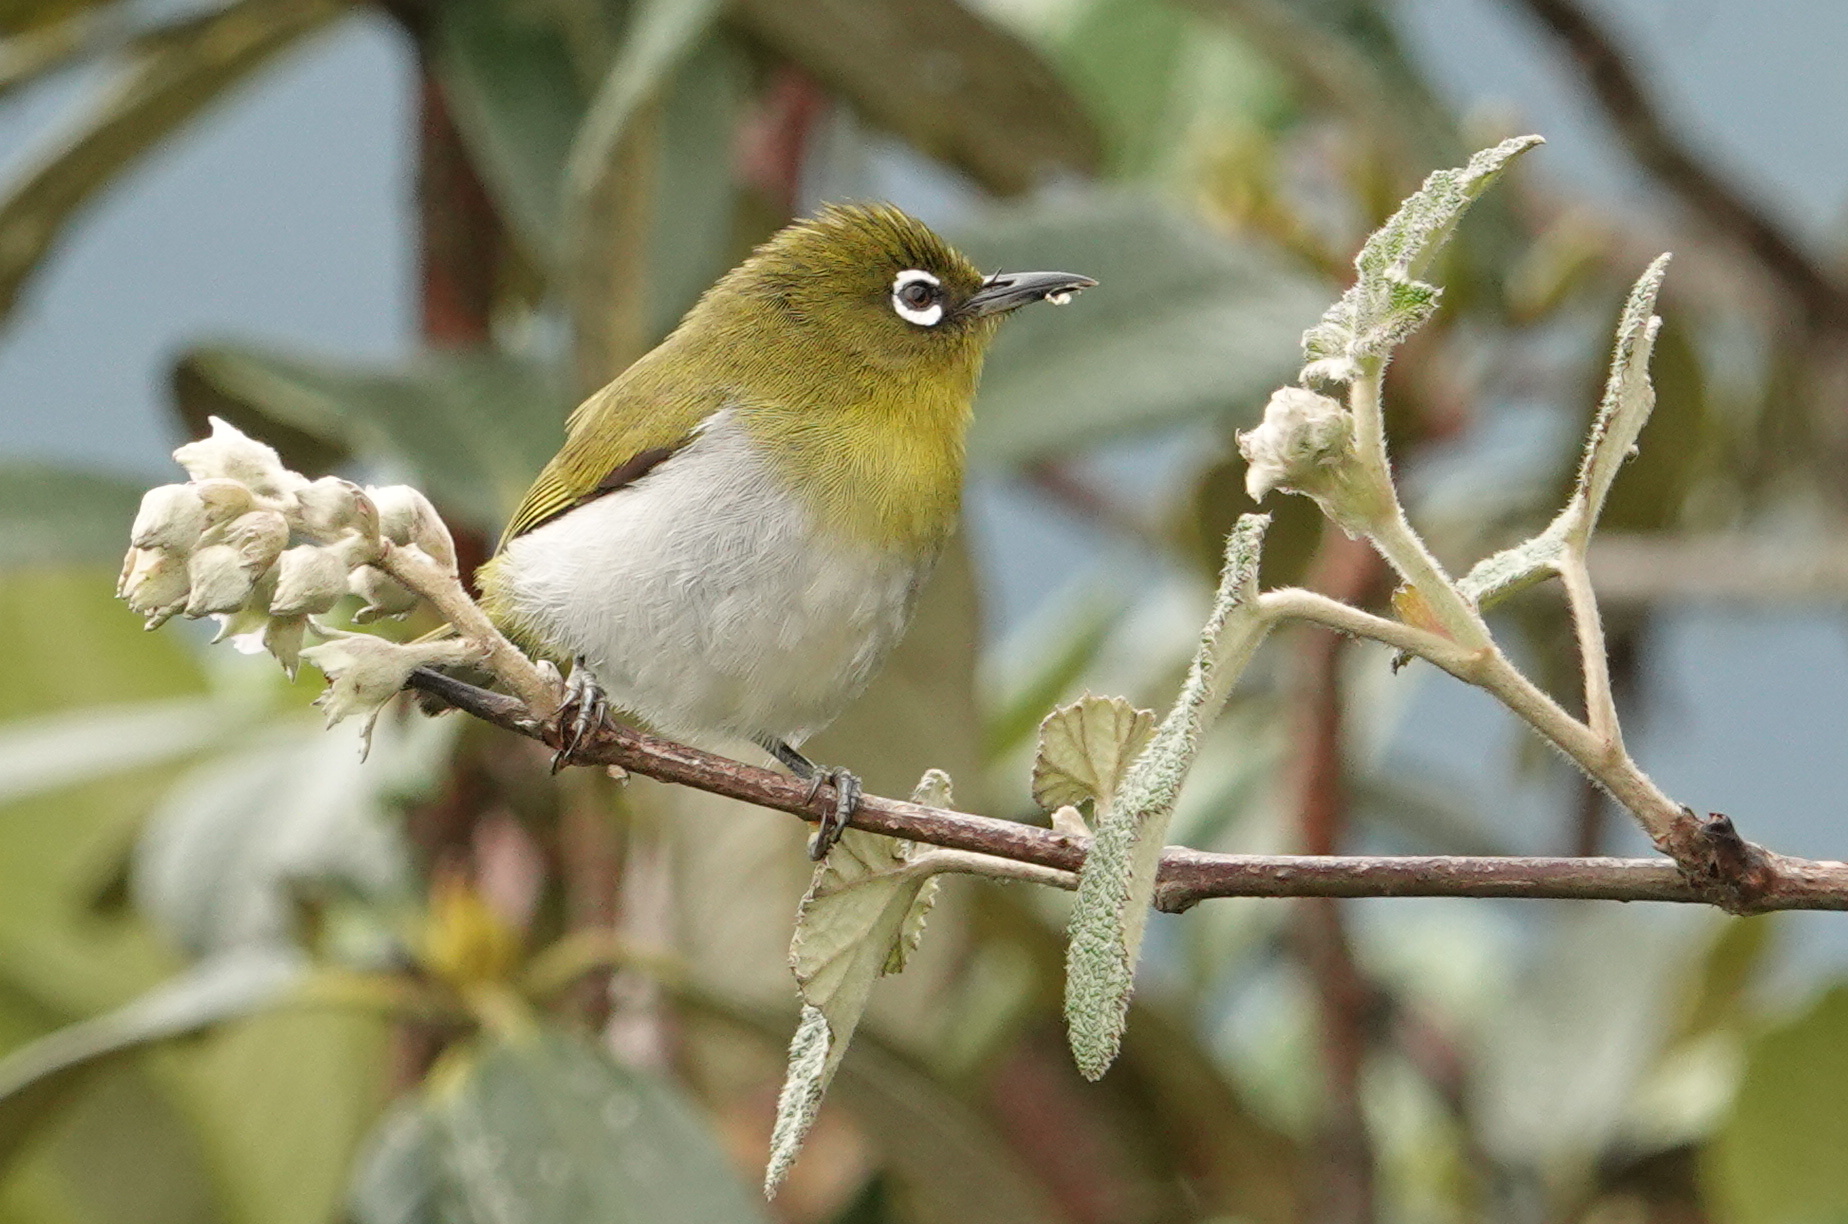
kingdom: Animalia
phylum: Chordata
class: Aves
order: Passeriformes
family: Zosteropidae
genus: Zosterops
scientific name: Zosterops ceylonensis
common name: Sri lanka white-eye
